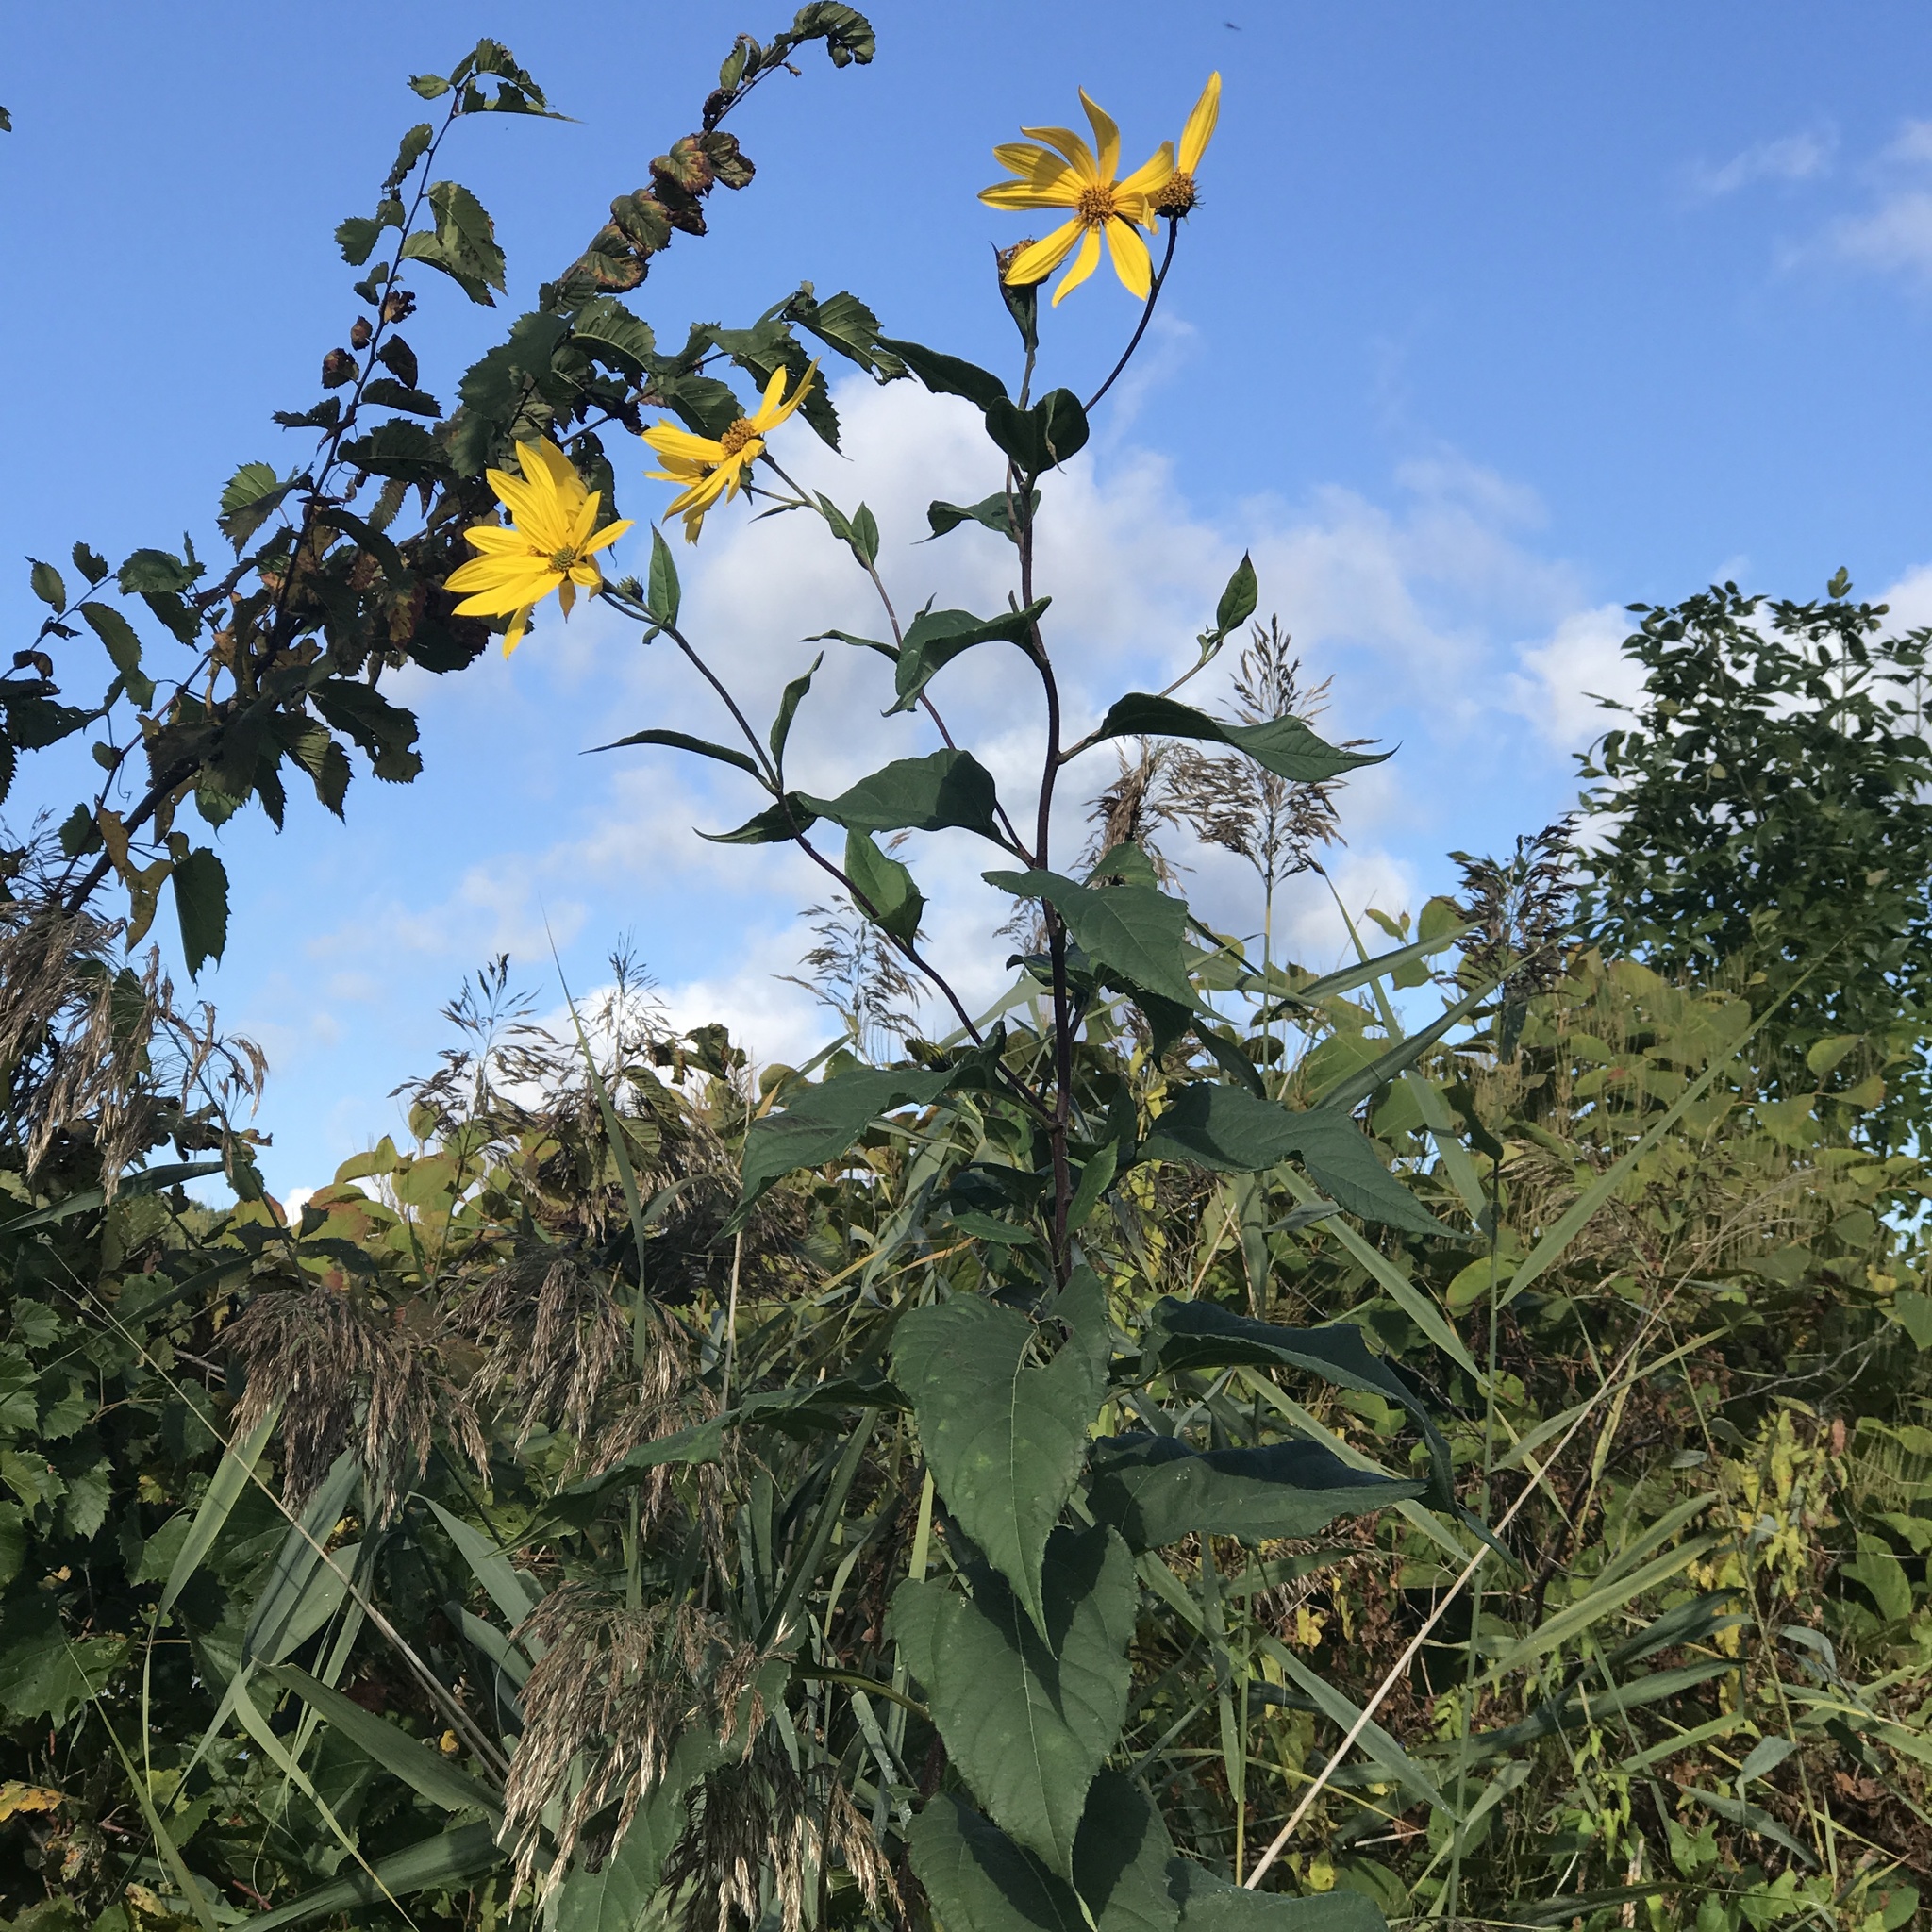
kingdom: Plantae
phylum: Tracheophyta
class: Liliopsida
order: Poales
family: Poaceae
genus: Phragmites
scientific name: Phragmites australis
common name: Common reed
